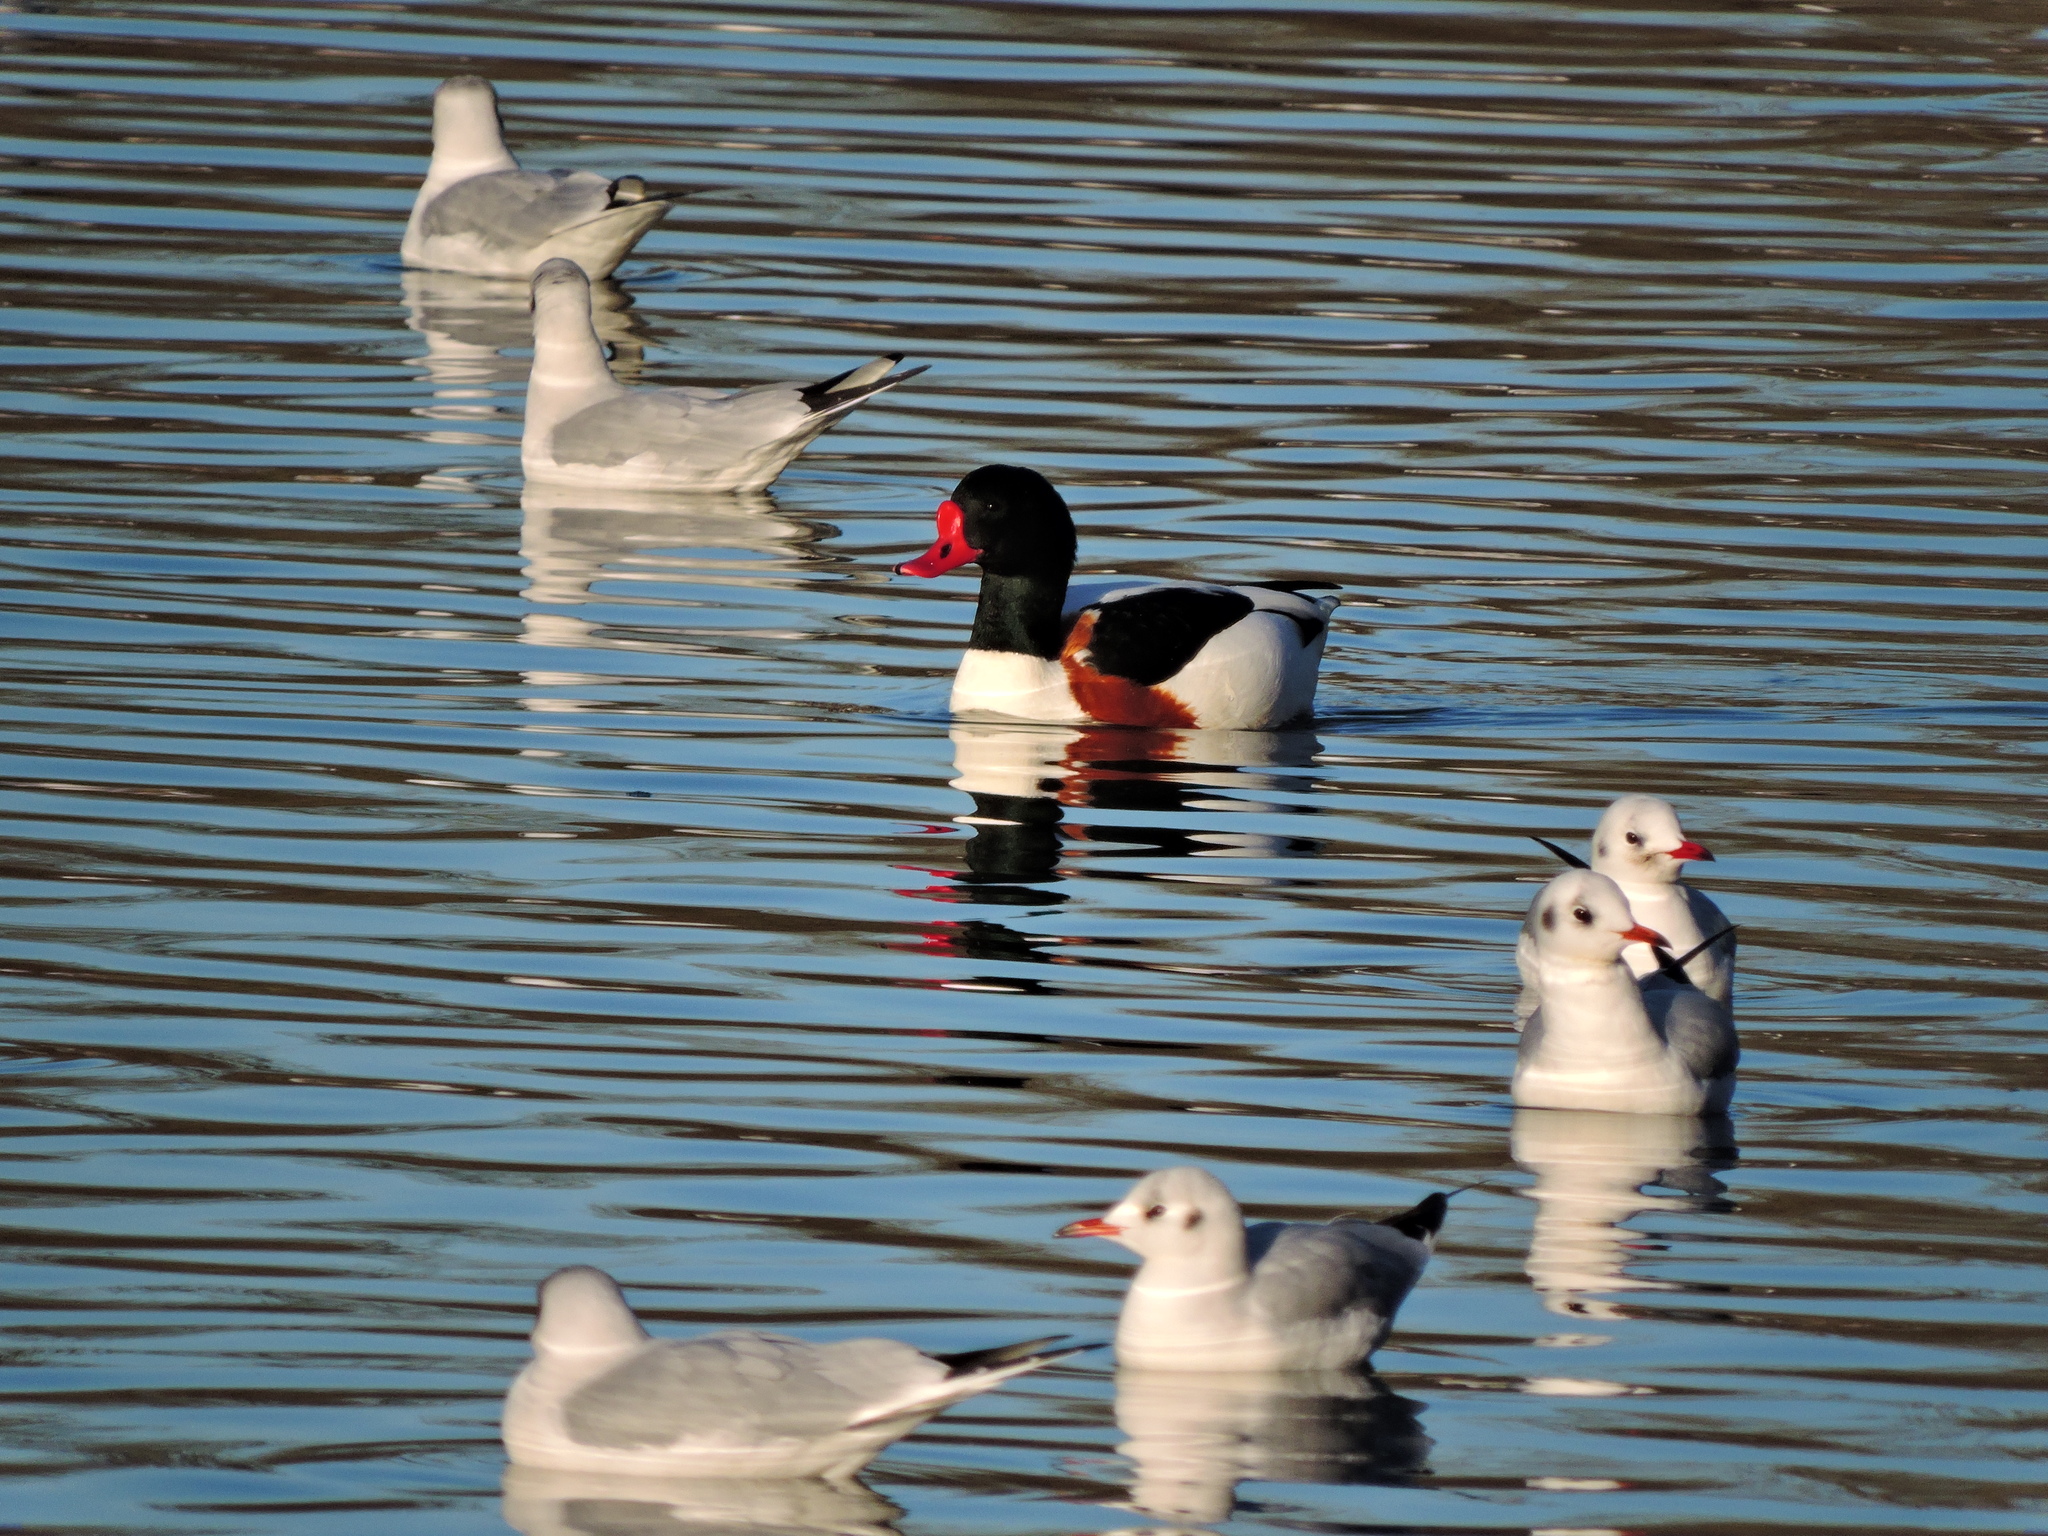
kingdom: Animalia
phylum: Chordata
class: Aves
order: Anseriformes
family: Anatidae
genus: Tadorna
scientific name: Tadorna tadorna
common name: Common shelduck
